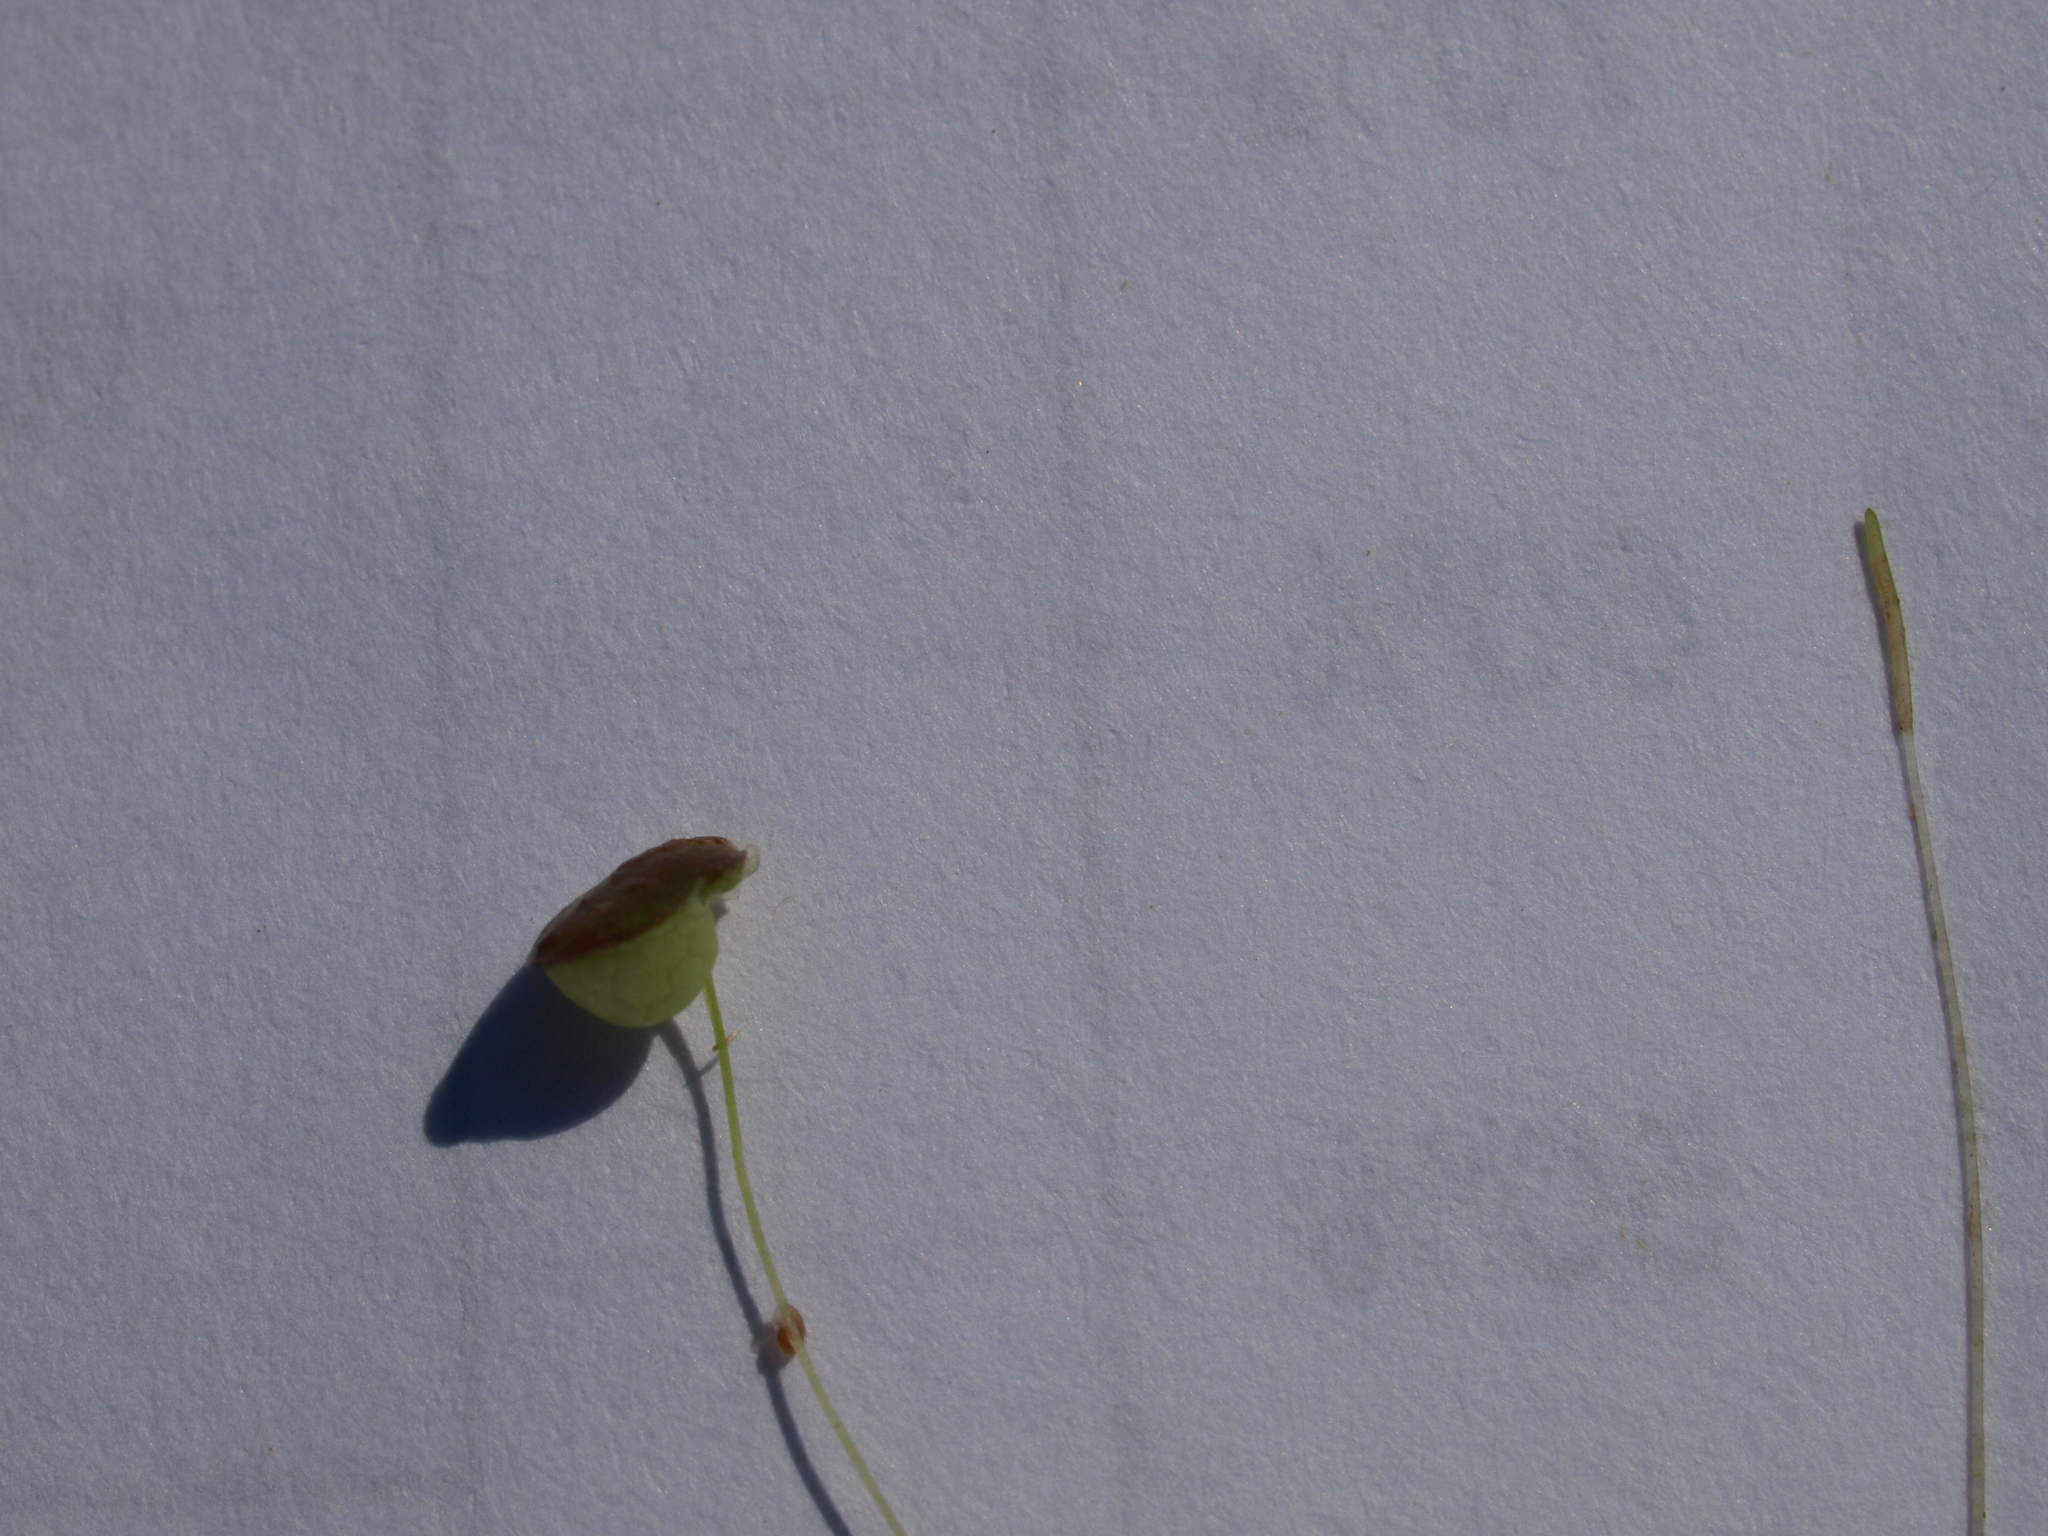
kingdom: Plantae
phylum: Tracheophyta
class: Liliopsida
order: Alismatales
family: Araceae
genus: Lemna
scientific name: Lemna gibba
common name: Fat duckweed
